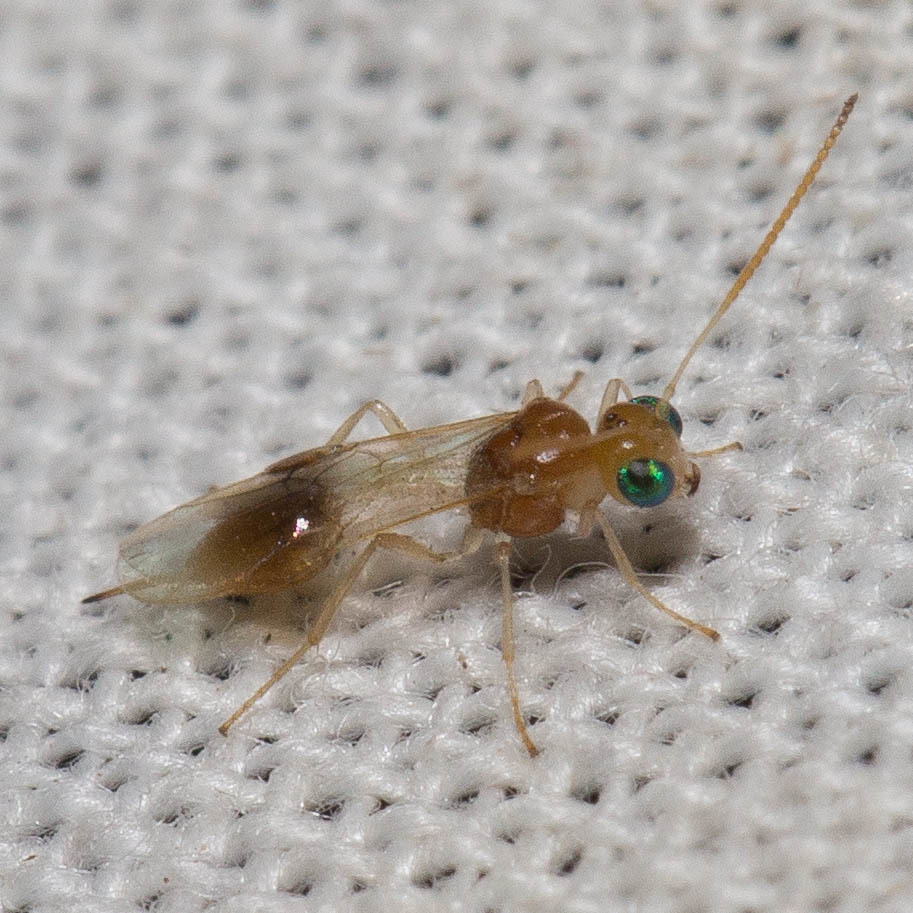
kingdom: Animalia
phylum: Arthropoda
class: Insecta
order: Hymenoptera
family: Braconidae
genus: Chrysopophthorus
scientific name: Chrysopophthorus americanus
